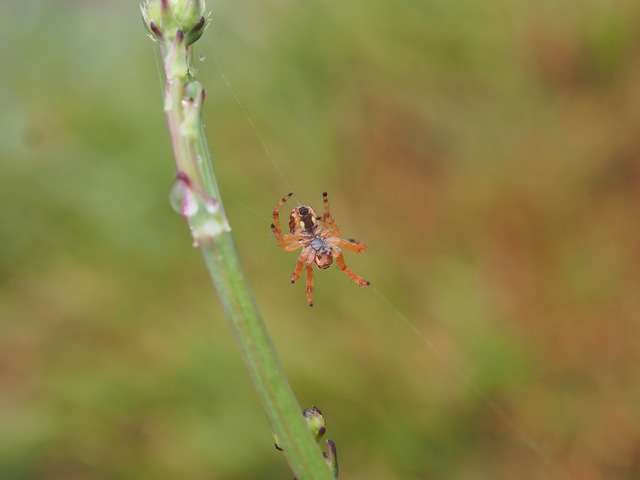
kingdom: Animalia
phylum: Arthropoda
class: Arachnida
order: Araneae
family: Araneidae
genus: Salsa
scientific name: Salsa fuliginata
